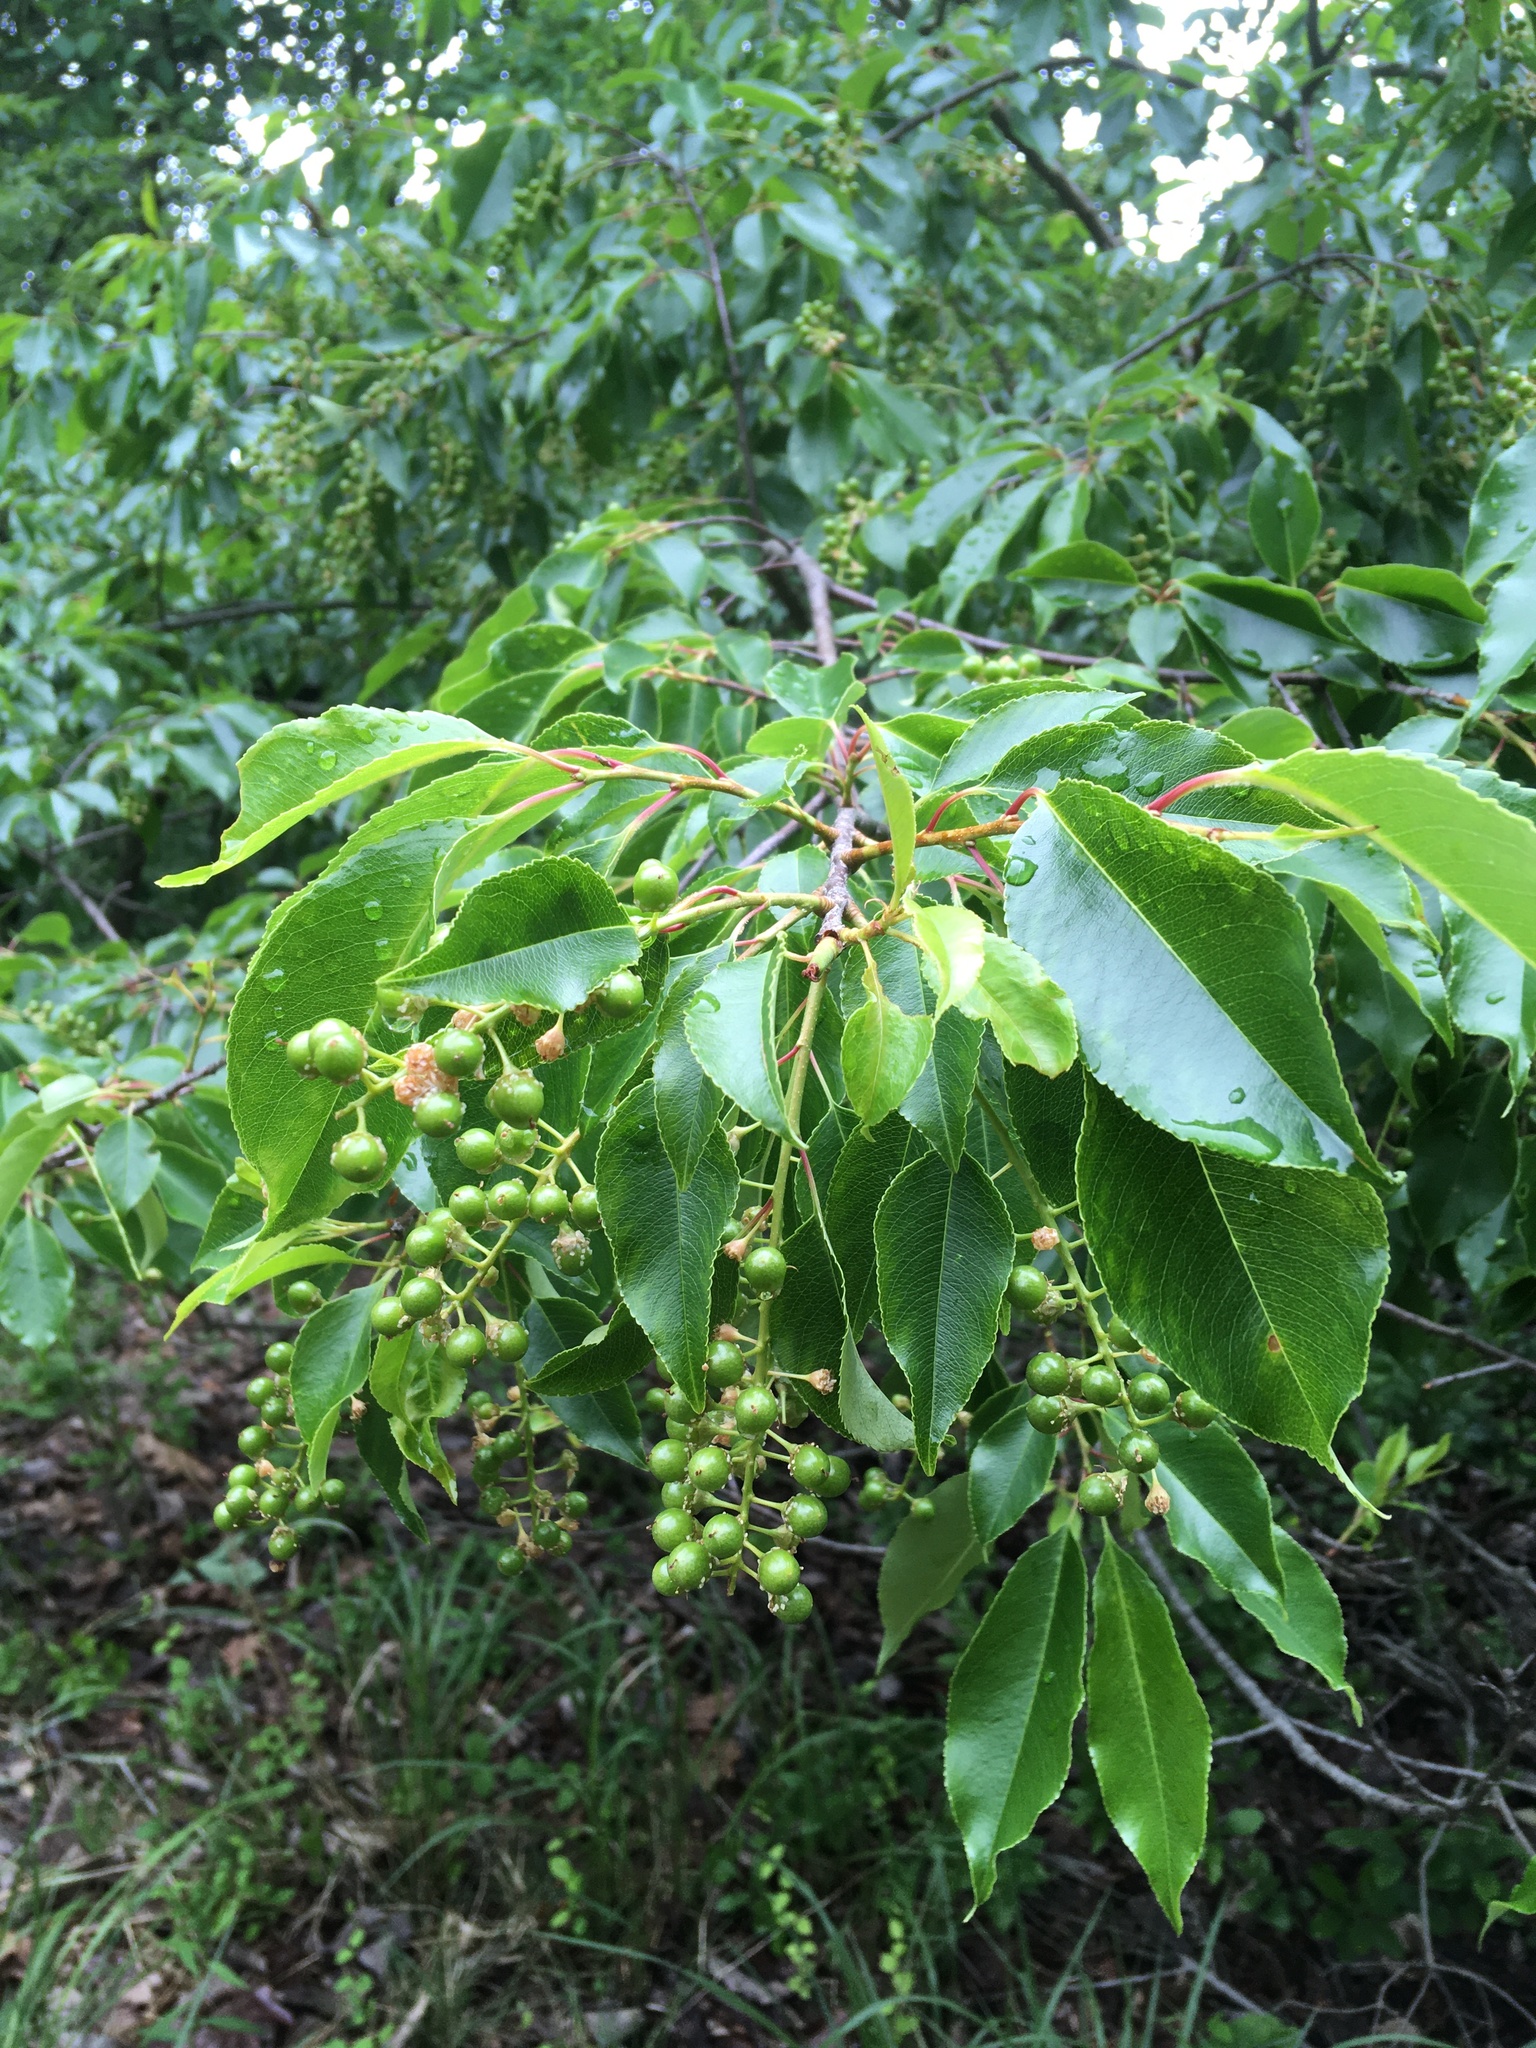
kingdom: Plantae
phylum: Tracheophyta
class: Magnoliopsida
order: Rosales
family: Rosaceae
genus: Prunus
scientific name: Prunus serotina
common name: Black cherry
